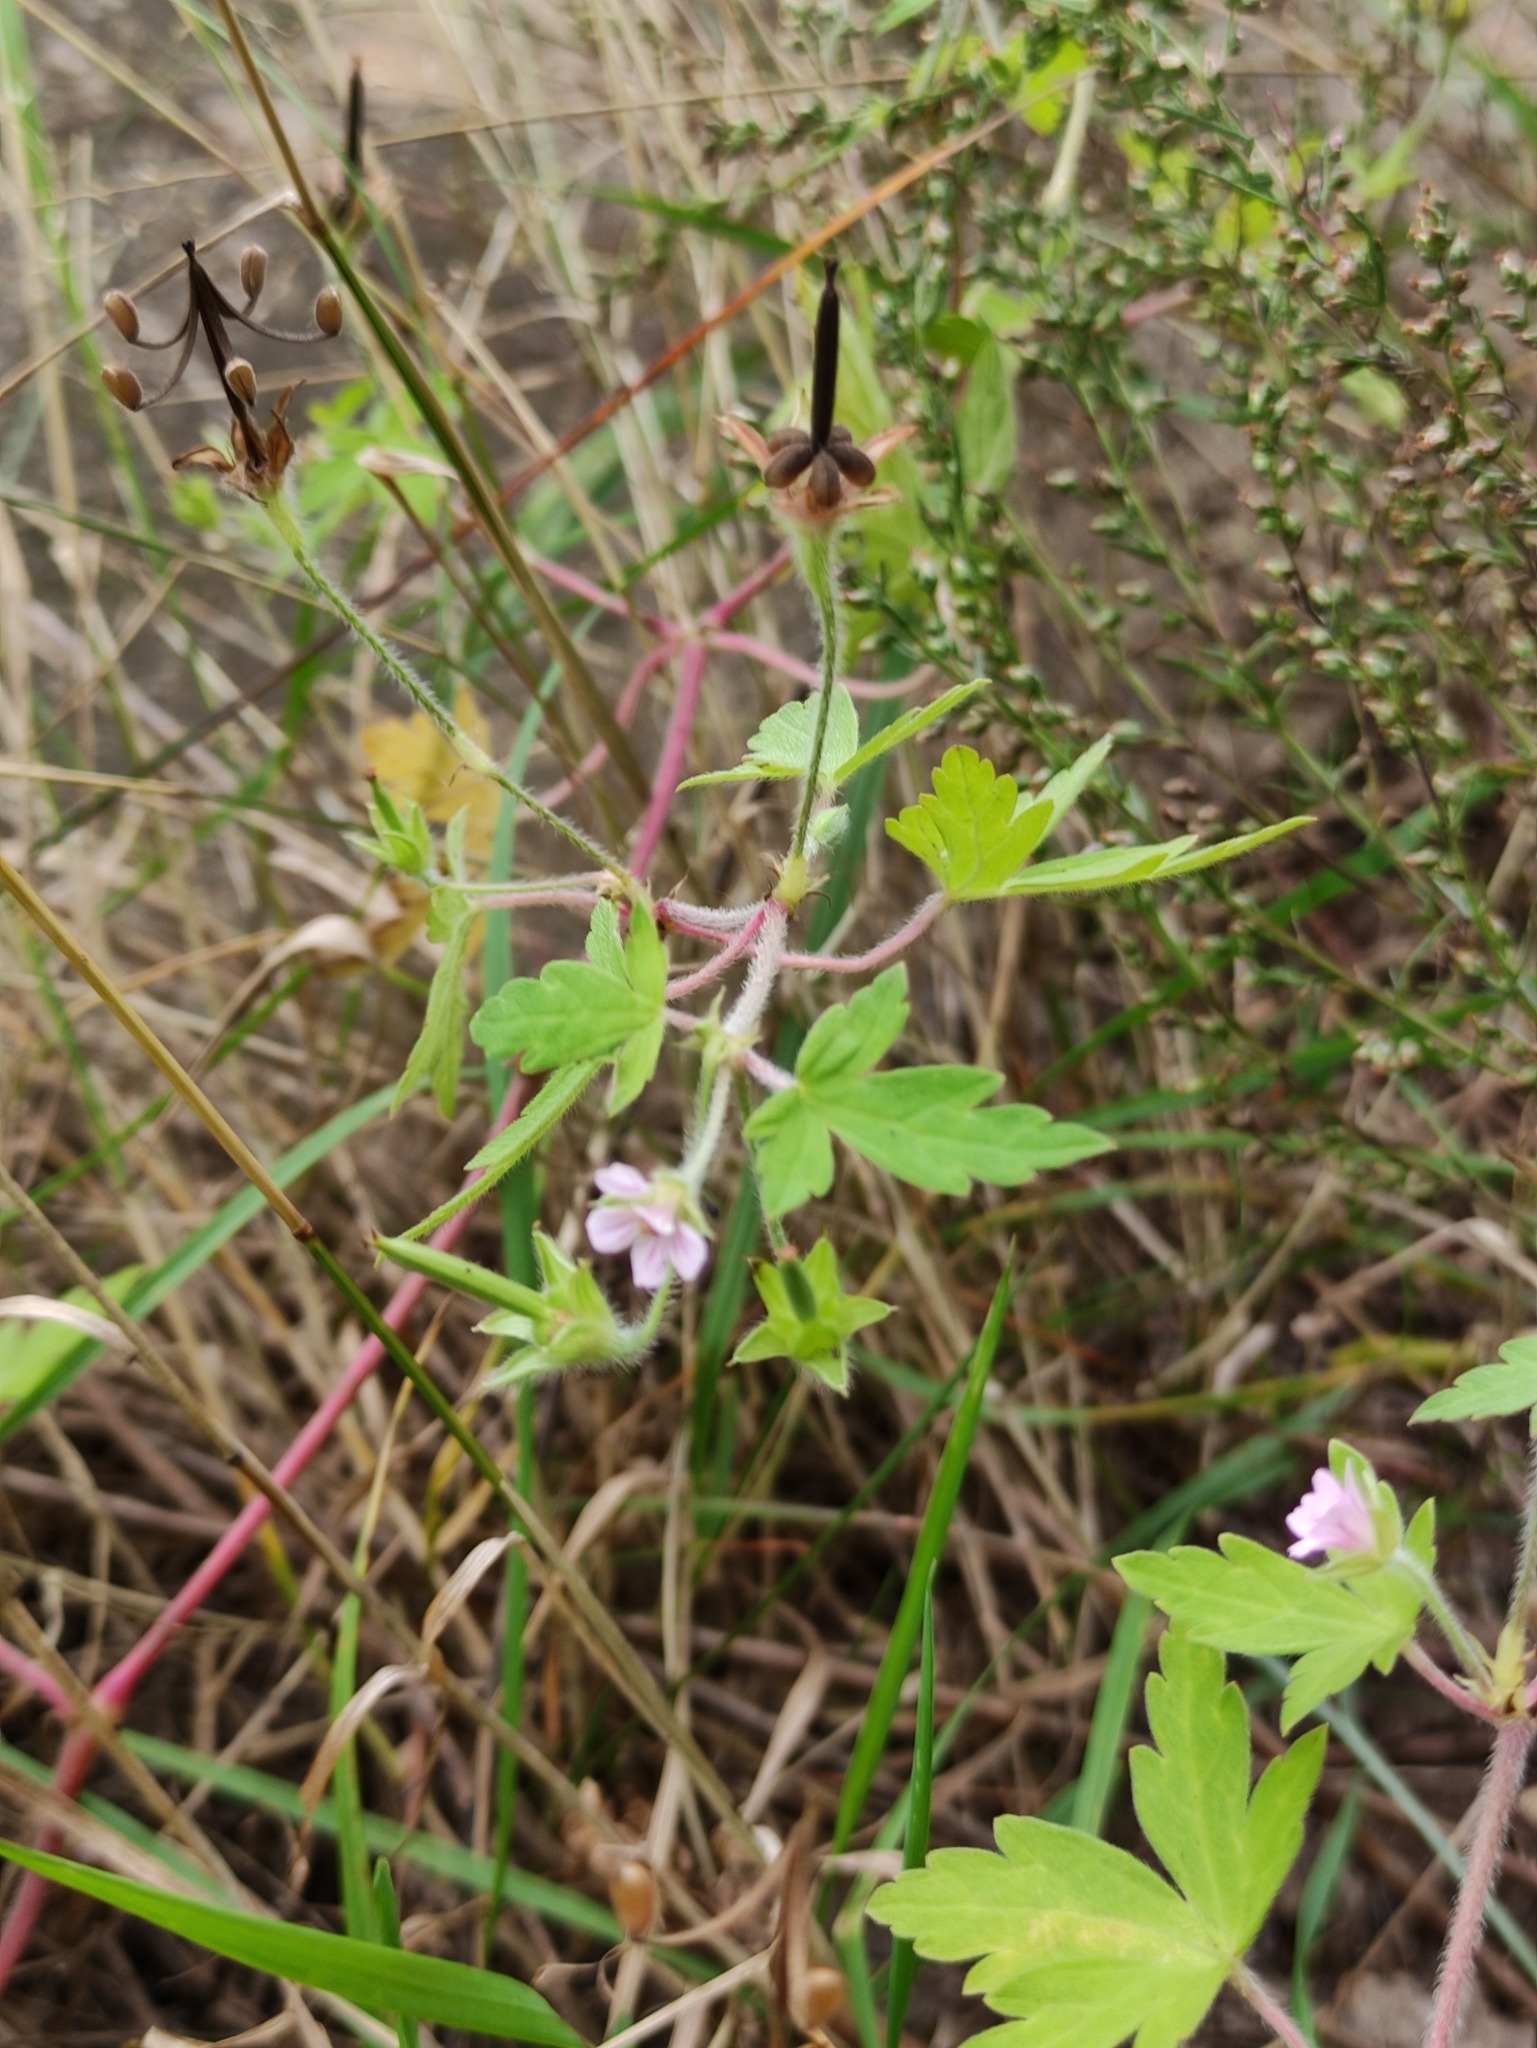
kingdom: Plantae
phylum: Tracheophyta
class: Magnoliopsida
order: Geraniales
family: Geraniaceae
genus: Geranium
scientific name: Geranium sibiricum
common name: Siberian crane's-bill
